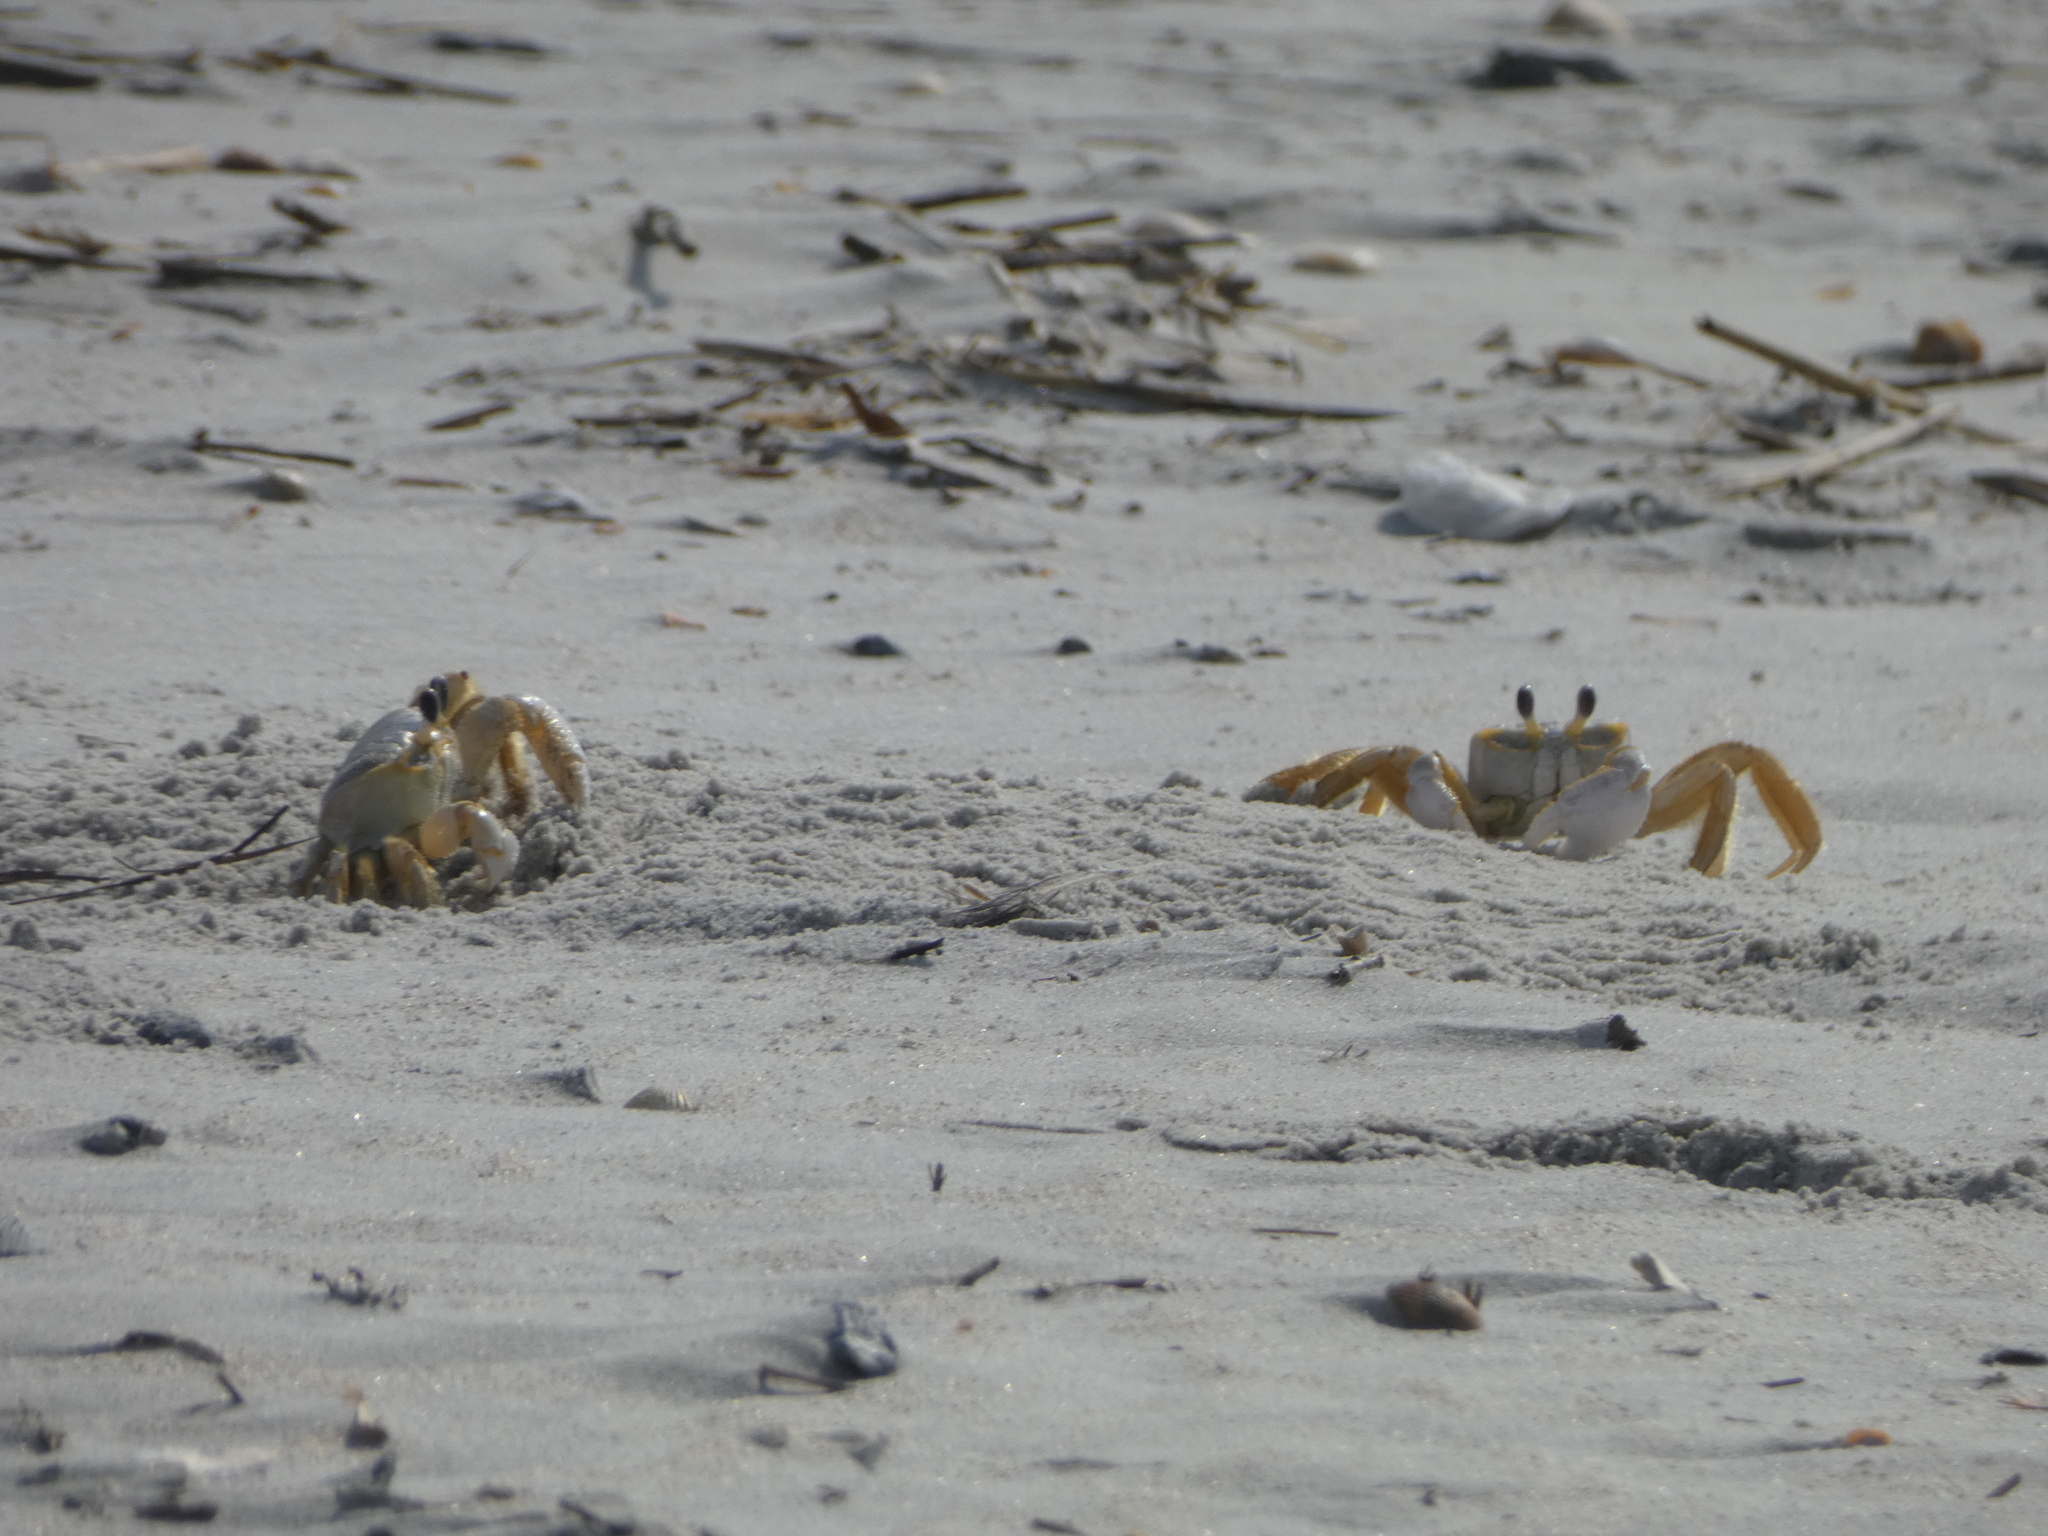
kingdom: Animalia
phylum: Arthropoda
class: Malacostraca
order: Decapoda
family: Ocypodidae
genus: Ocypode
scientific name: Ocypode quadrata
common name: Ghost crab
